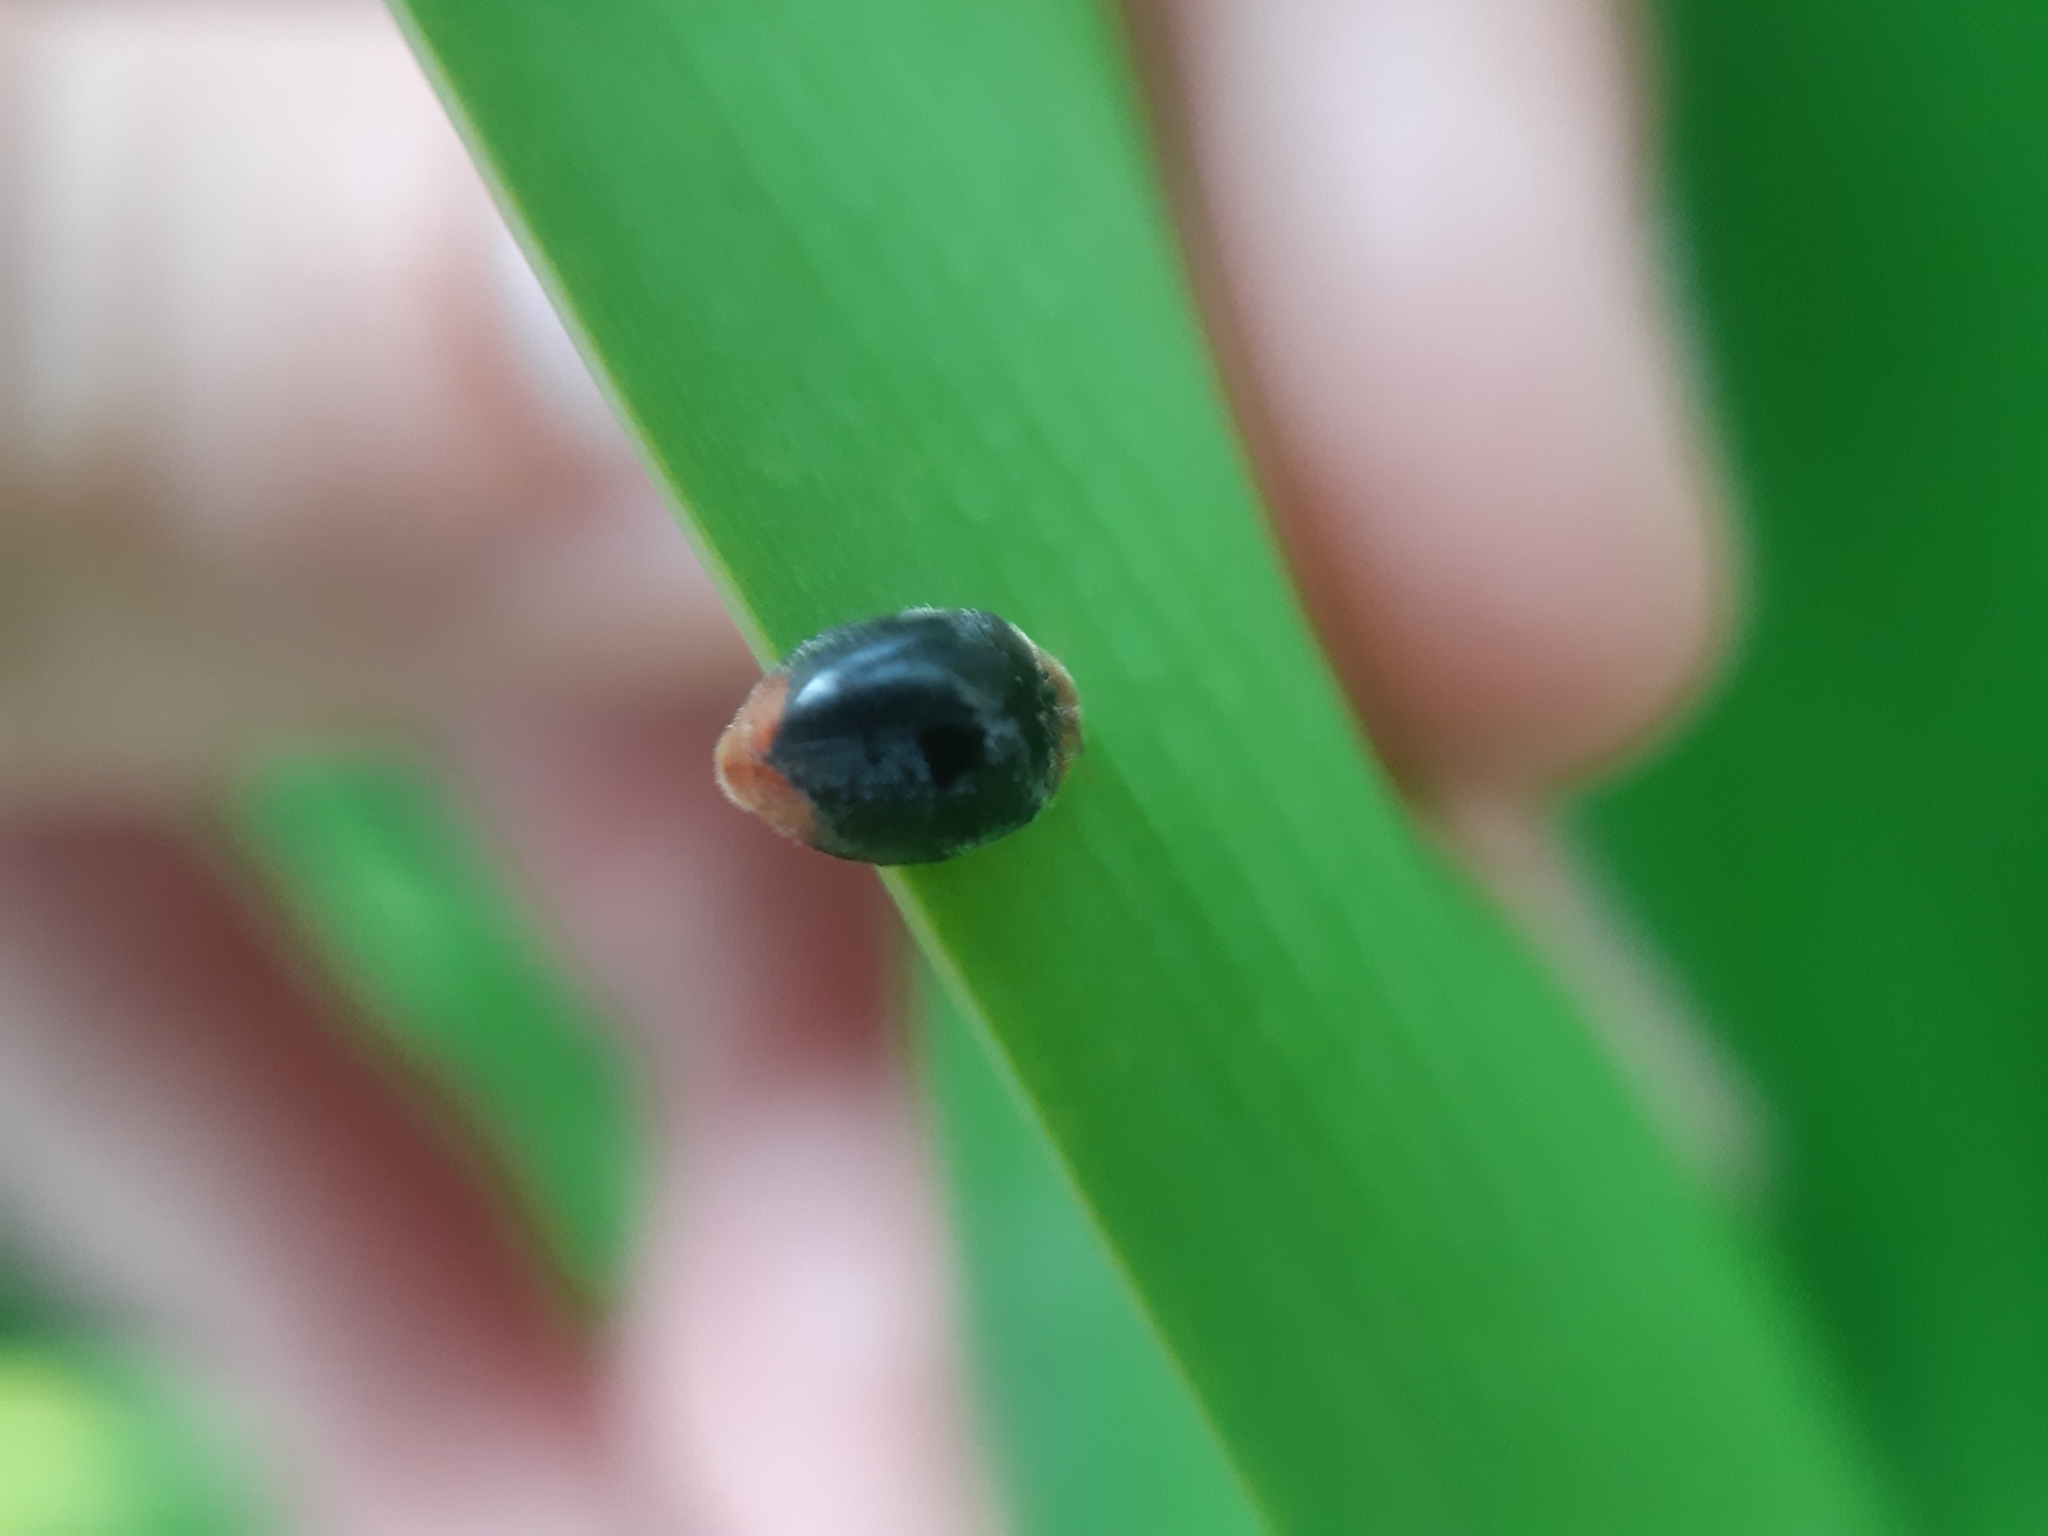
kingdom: Animalia
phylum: Arthropoda
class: Insecta
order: Coleoptera
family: Coccinellidae
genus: Cryptolaemus
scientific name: Cryptolaemus montrouzieri
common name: Mealybug destroyer
